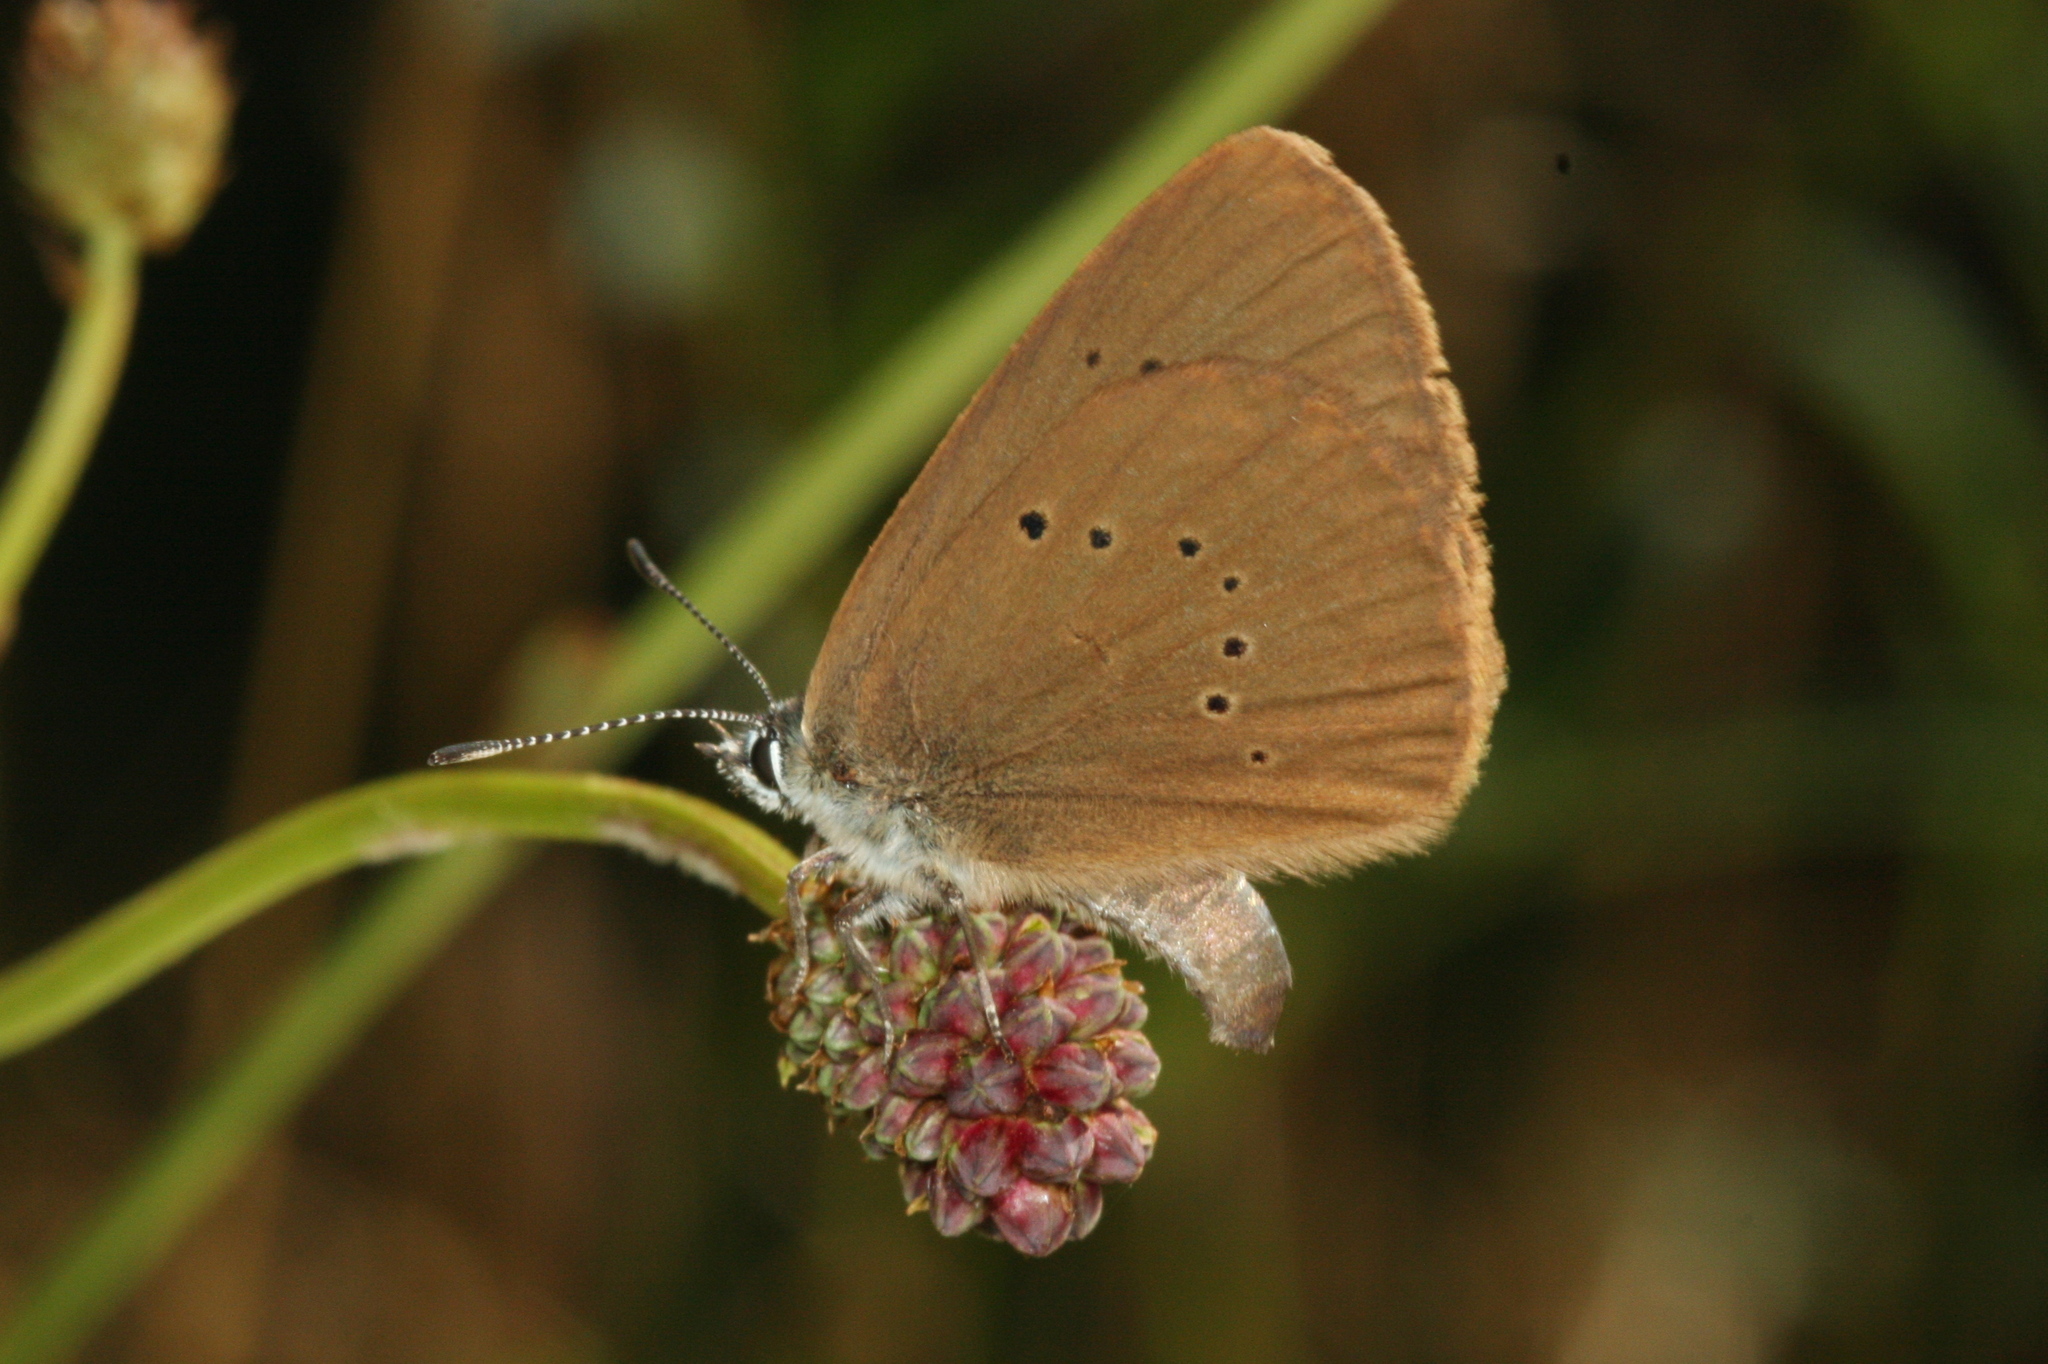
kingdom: Animalia
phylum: Arthropoda
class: Insecta
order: Lepidoptera
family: Lycaenidae
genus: Maculinea
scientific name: Maculinea nausithous
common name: Dusky large blue
